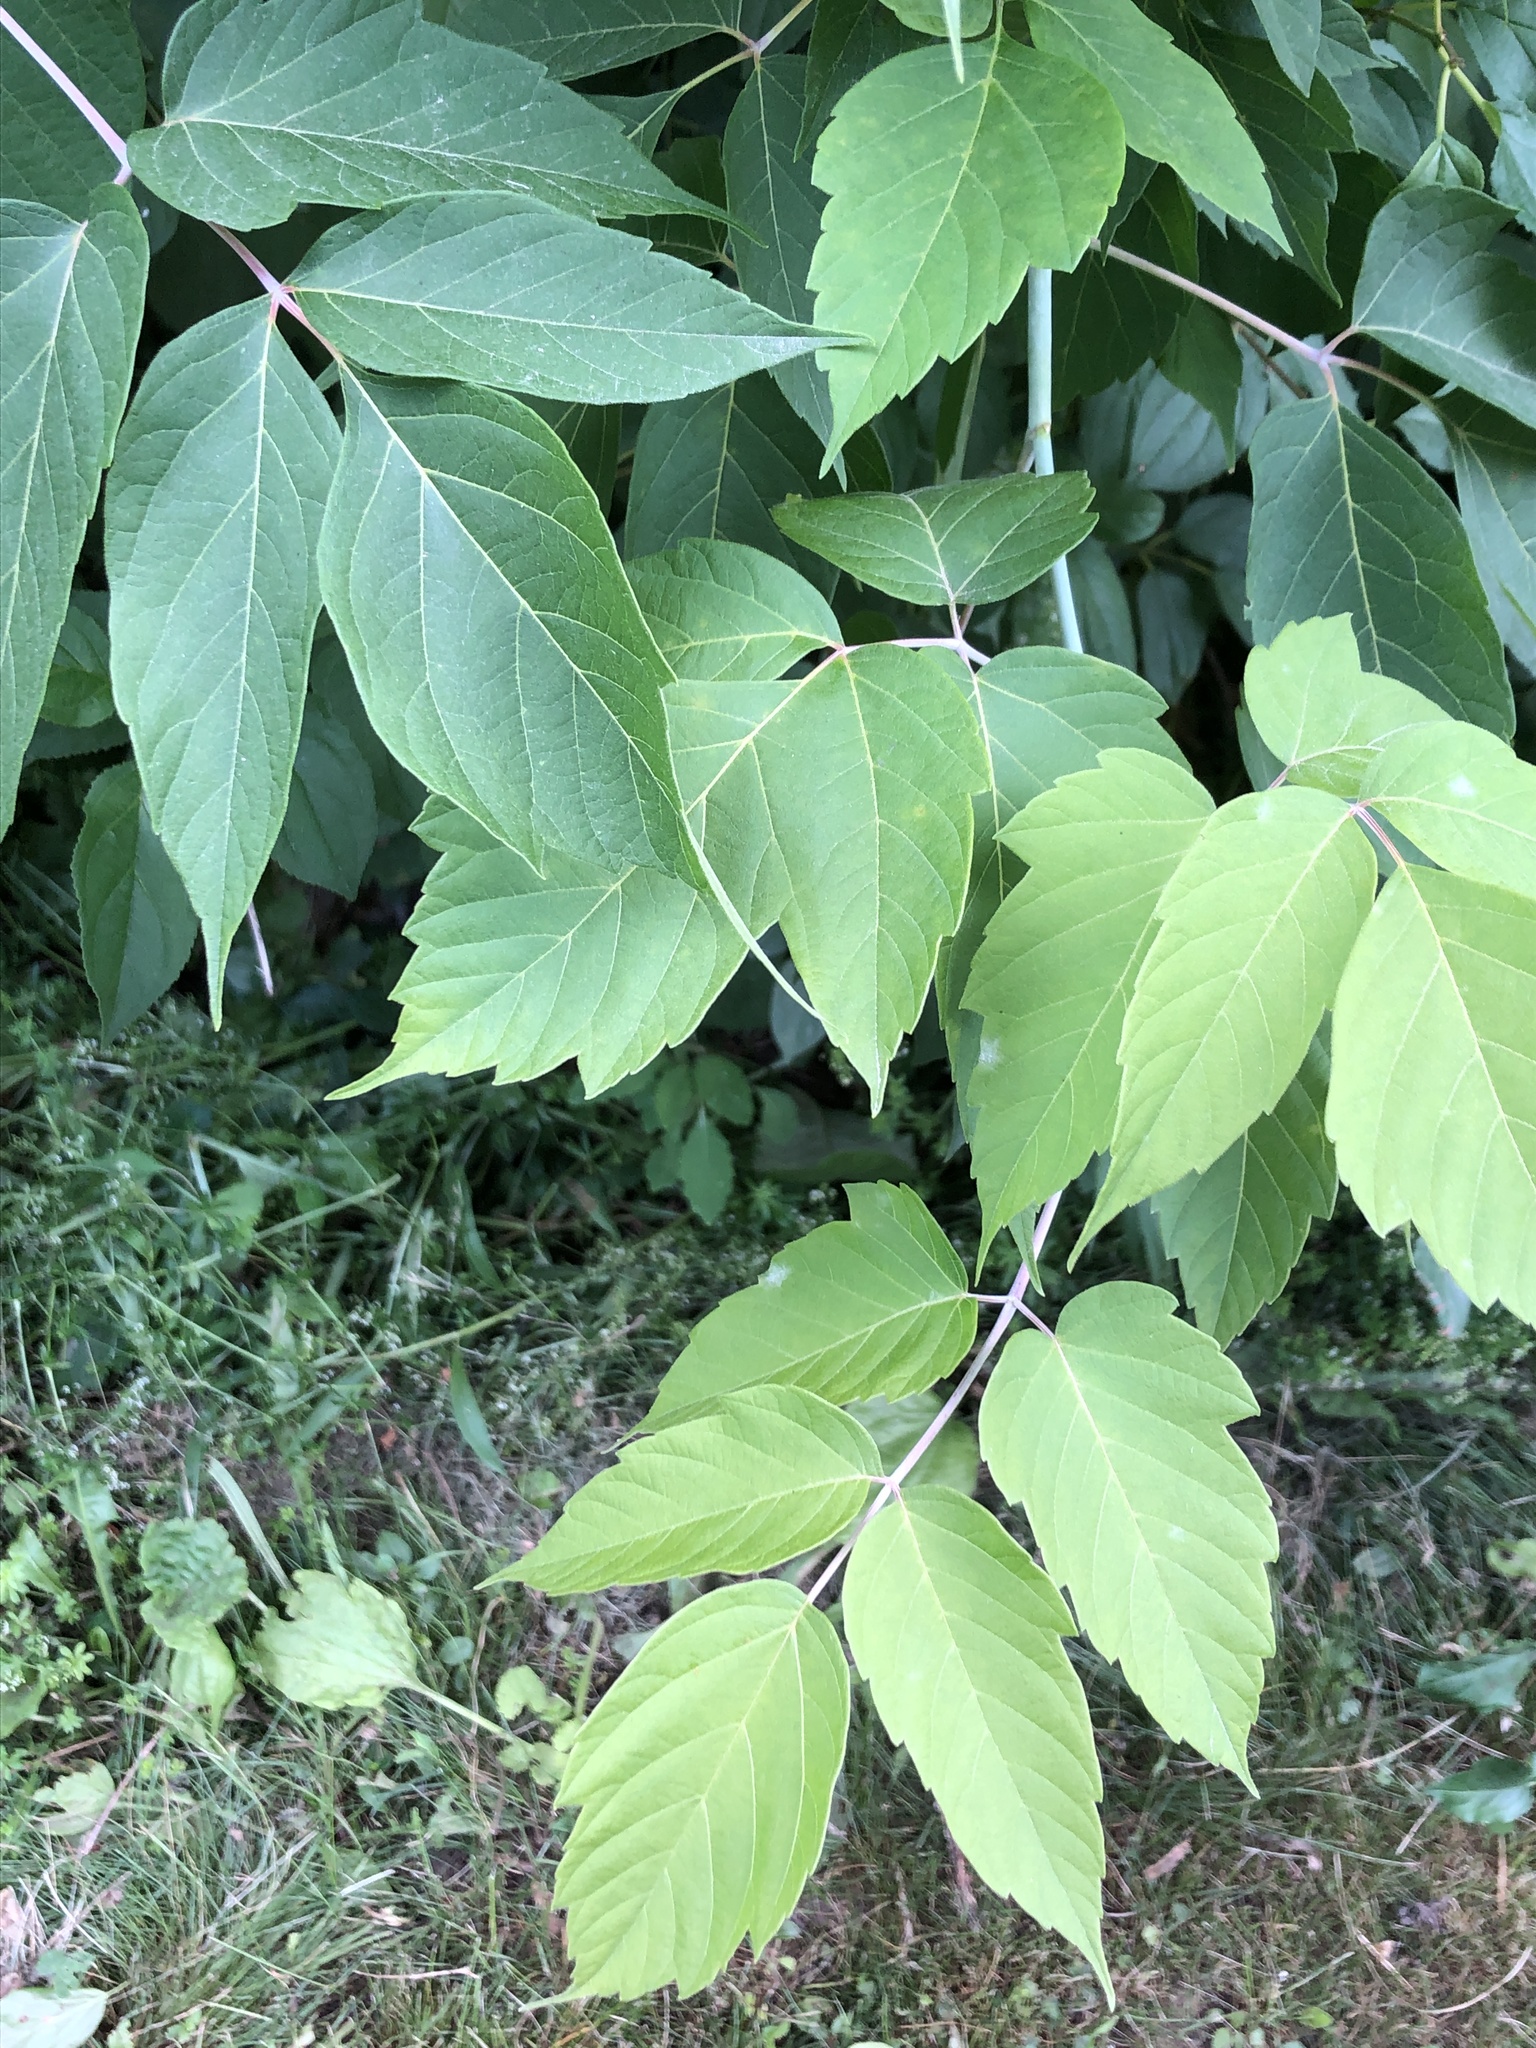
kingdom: Plantae
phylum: Tracheophyta
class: Magnoliopsida
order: Sapindales
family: Sapindaceae
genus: Acer
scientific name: Acer negundo
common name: Ashleaf maple
